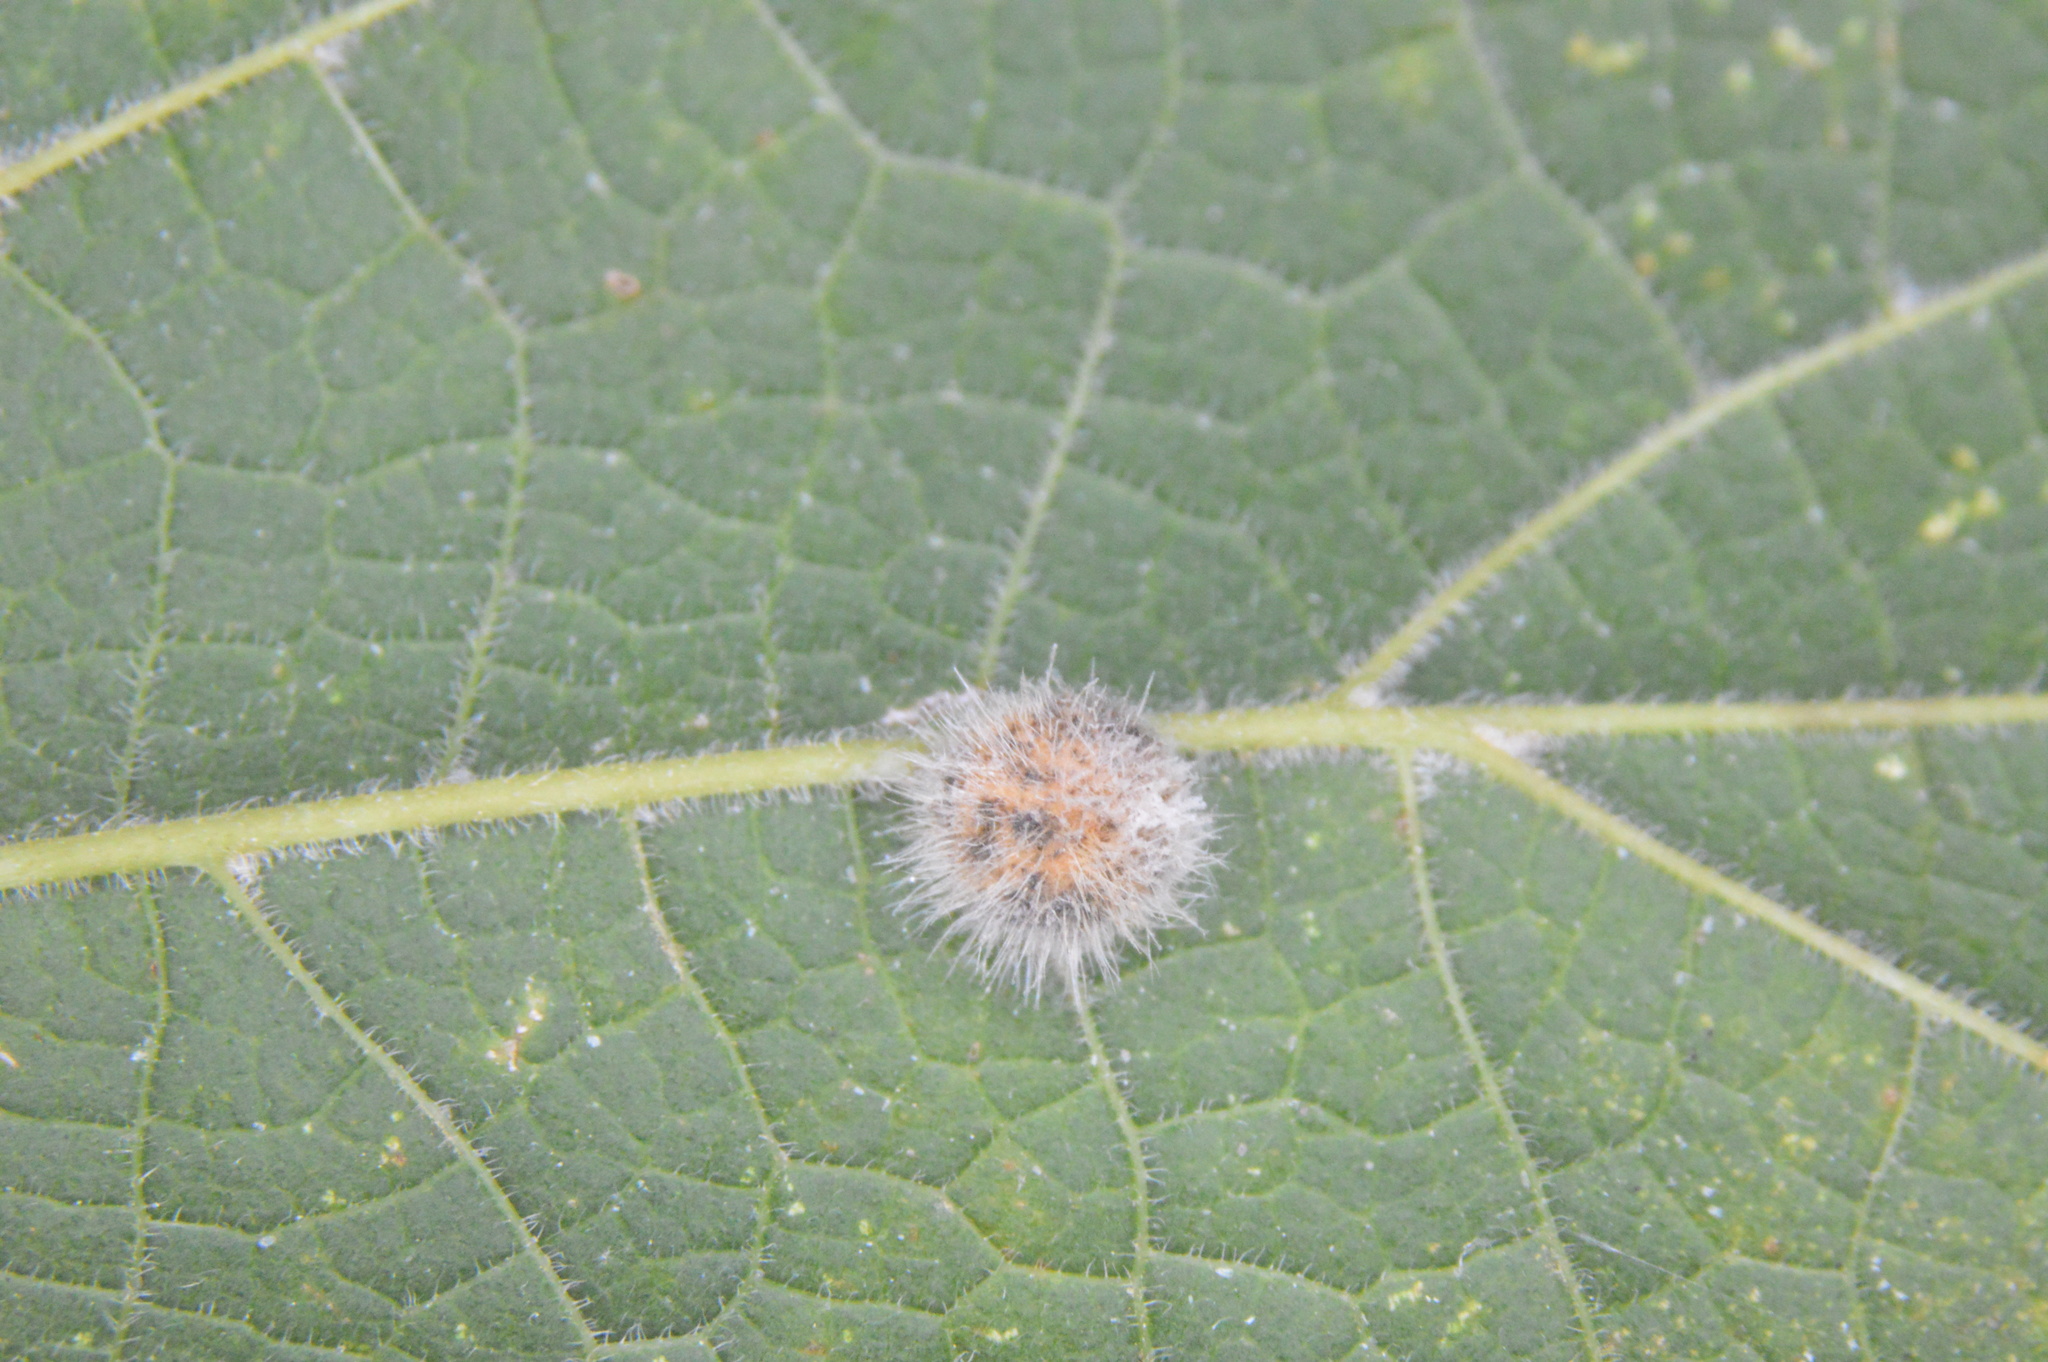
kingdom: Animalia
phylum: Arthropoda
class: Insecta
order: Diptera
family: Cecidomyiidae
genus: Celticecis
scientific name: Celticecis pubescens
